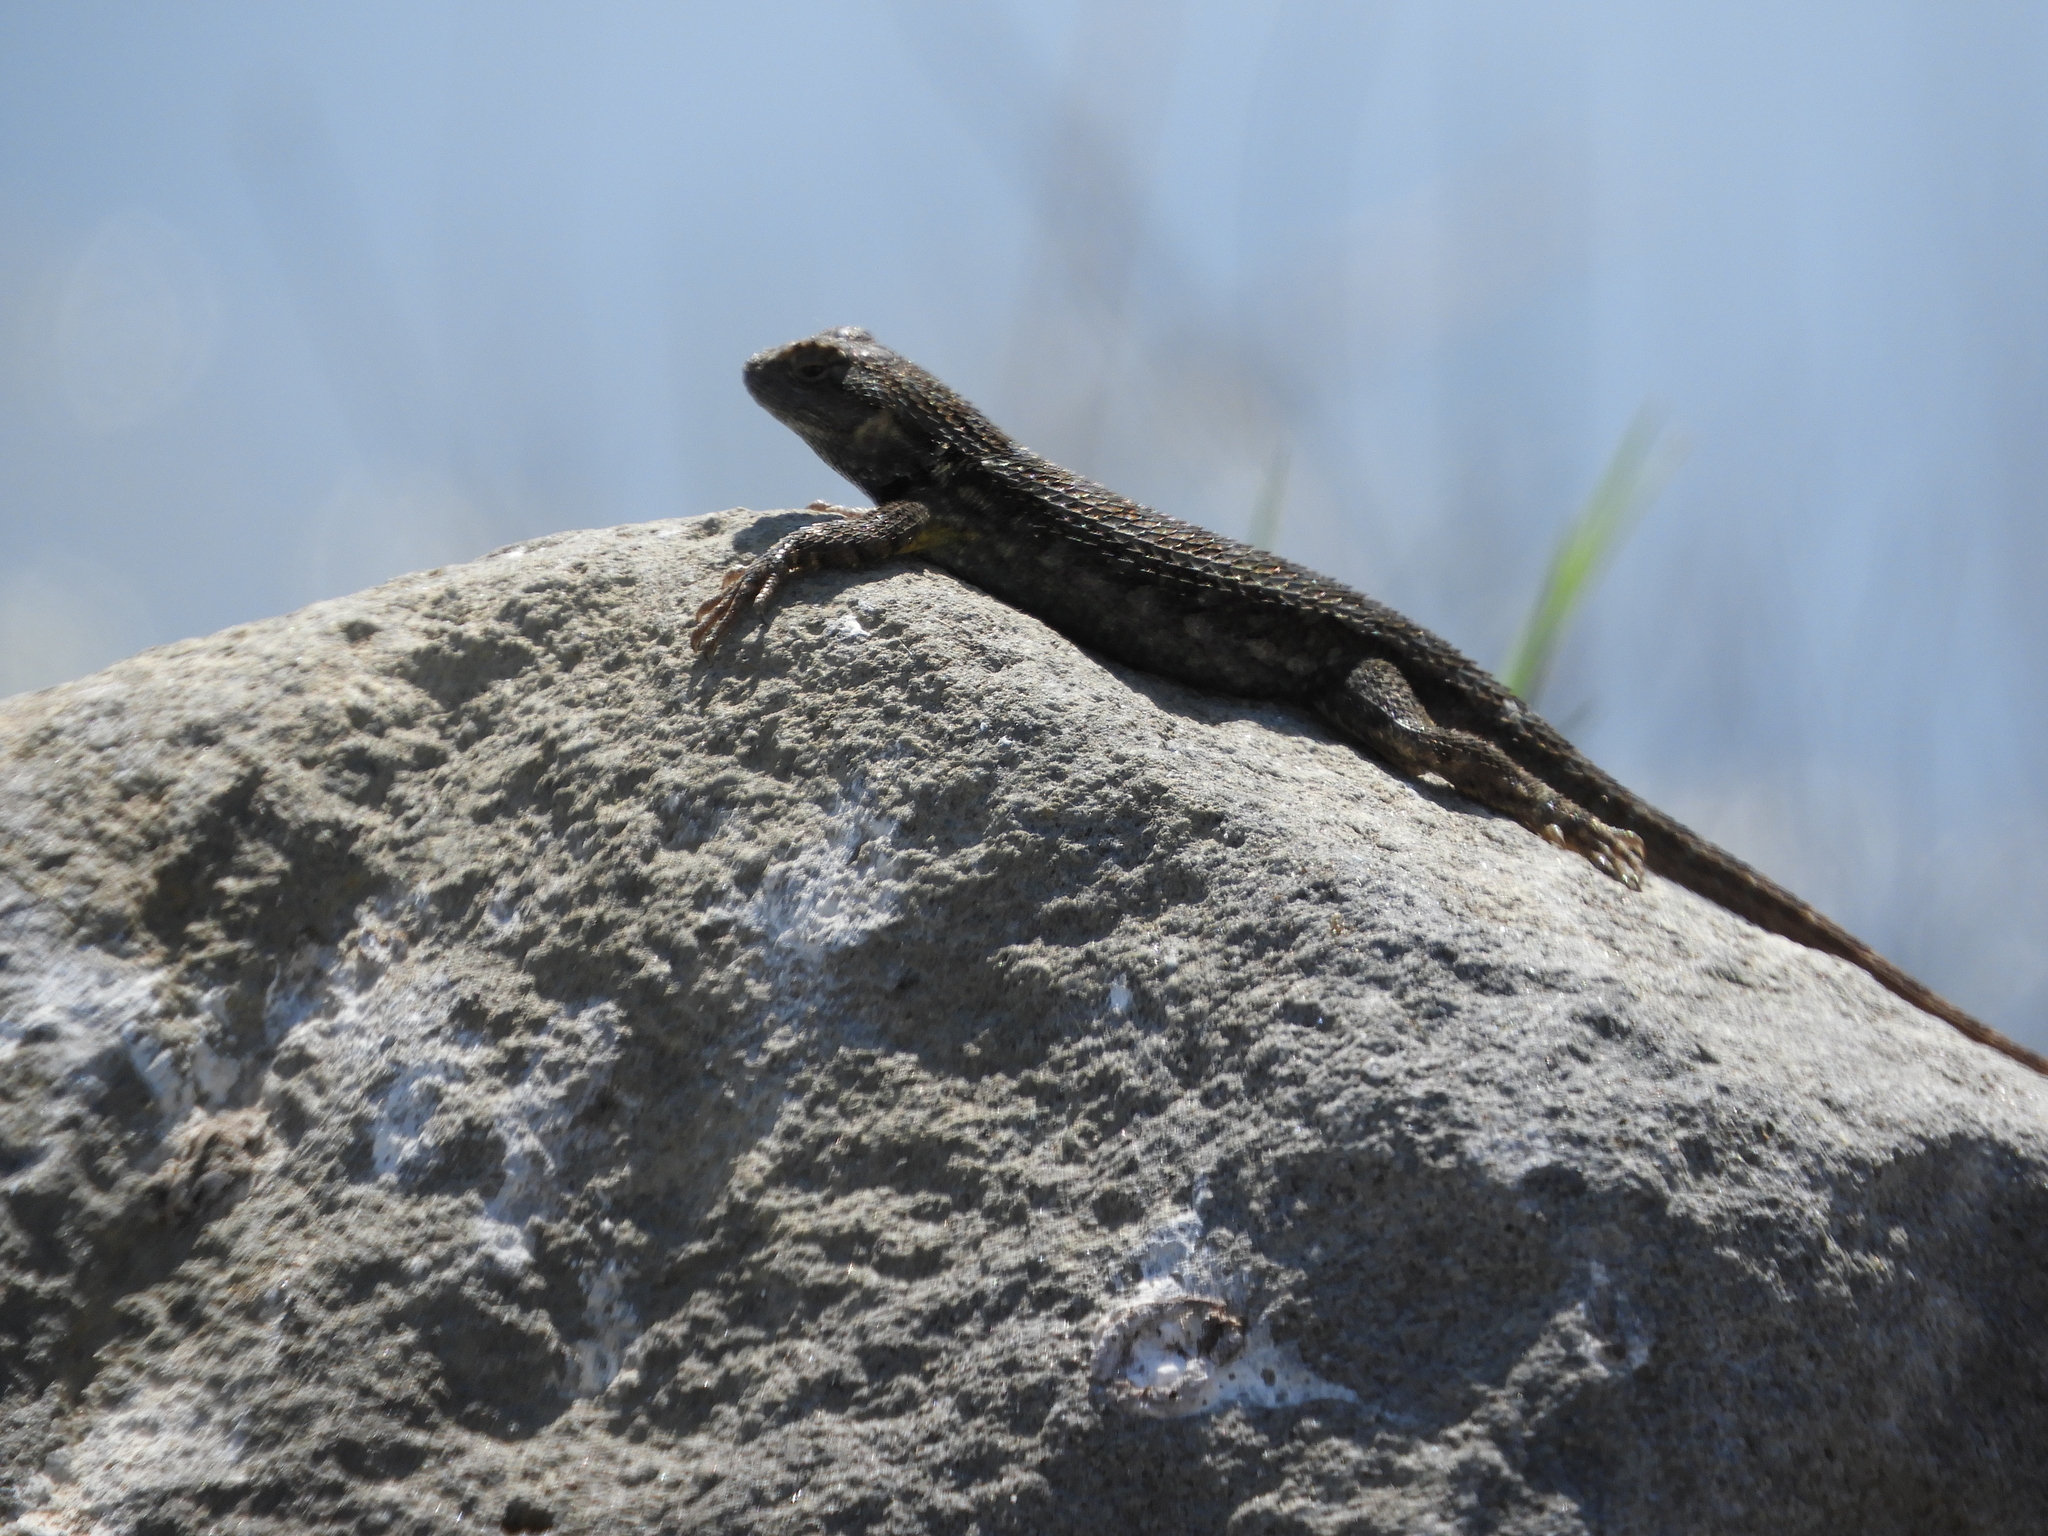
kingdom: Animalia
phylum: Chordata
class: Squamata
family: Phrynosomatidae
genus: Sceloporus
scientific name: Sceloporus occidentalis
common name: Western fence lizard
